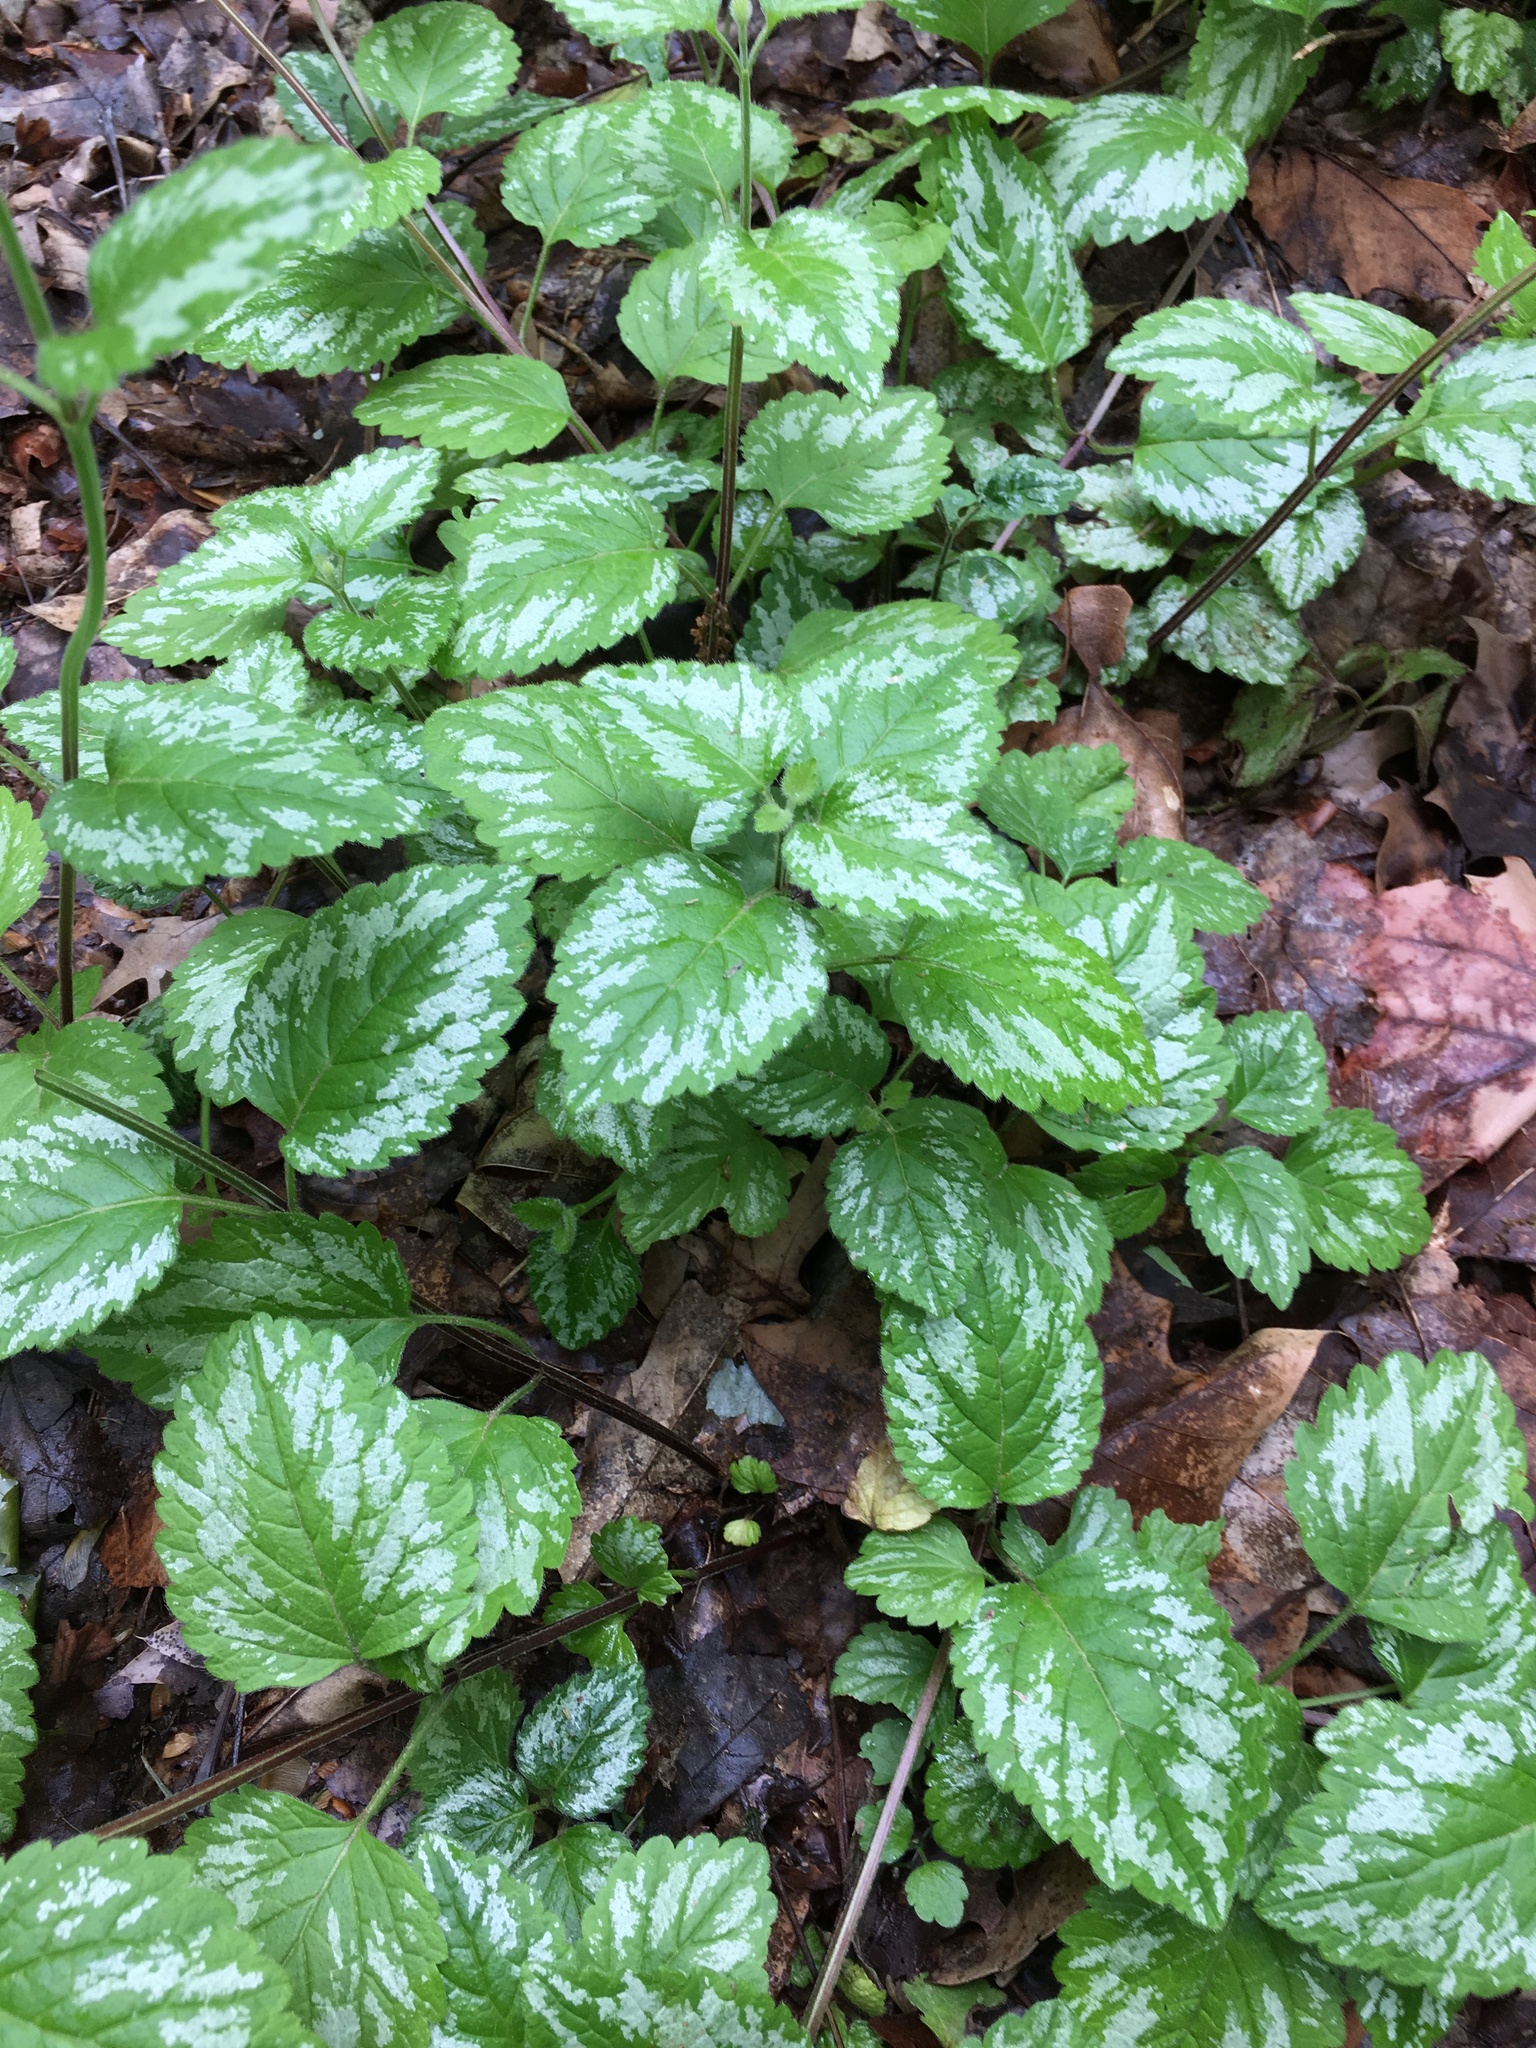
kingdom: Plantae
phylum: Tracheophyta
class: Magnoliopsida
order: Lamiales
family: Lamiaceae
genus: Lamium
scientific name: Lamium galeobdolon
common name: Yellow archangel
